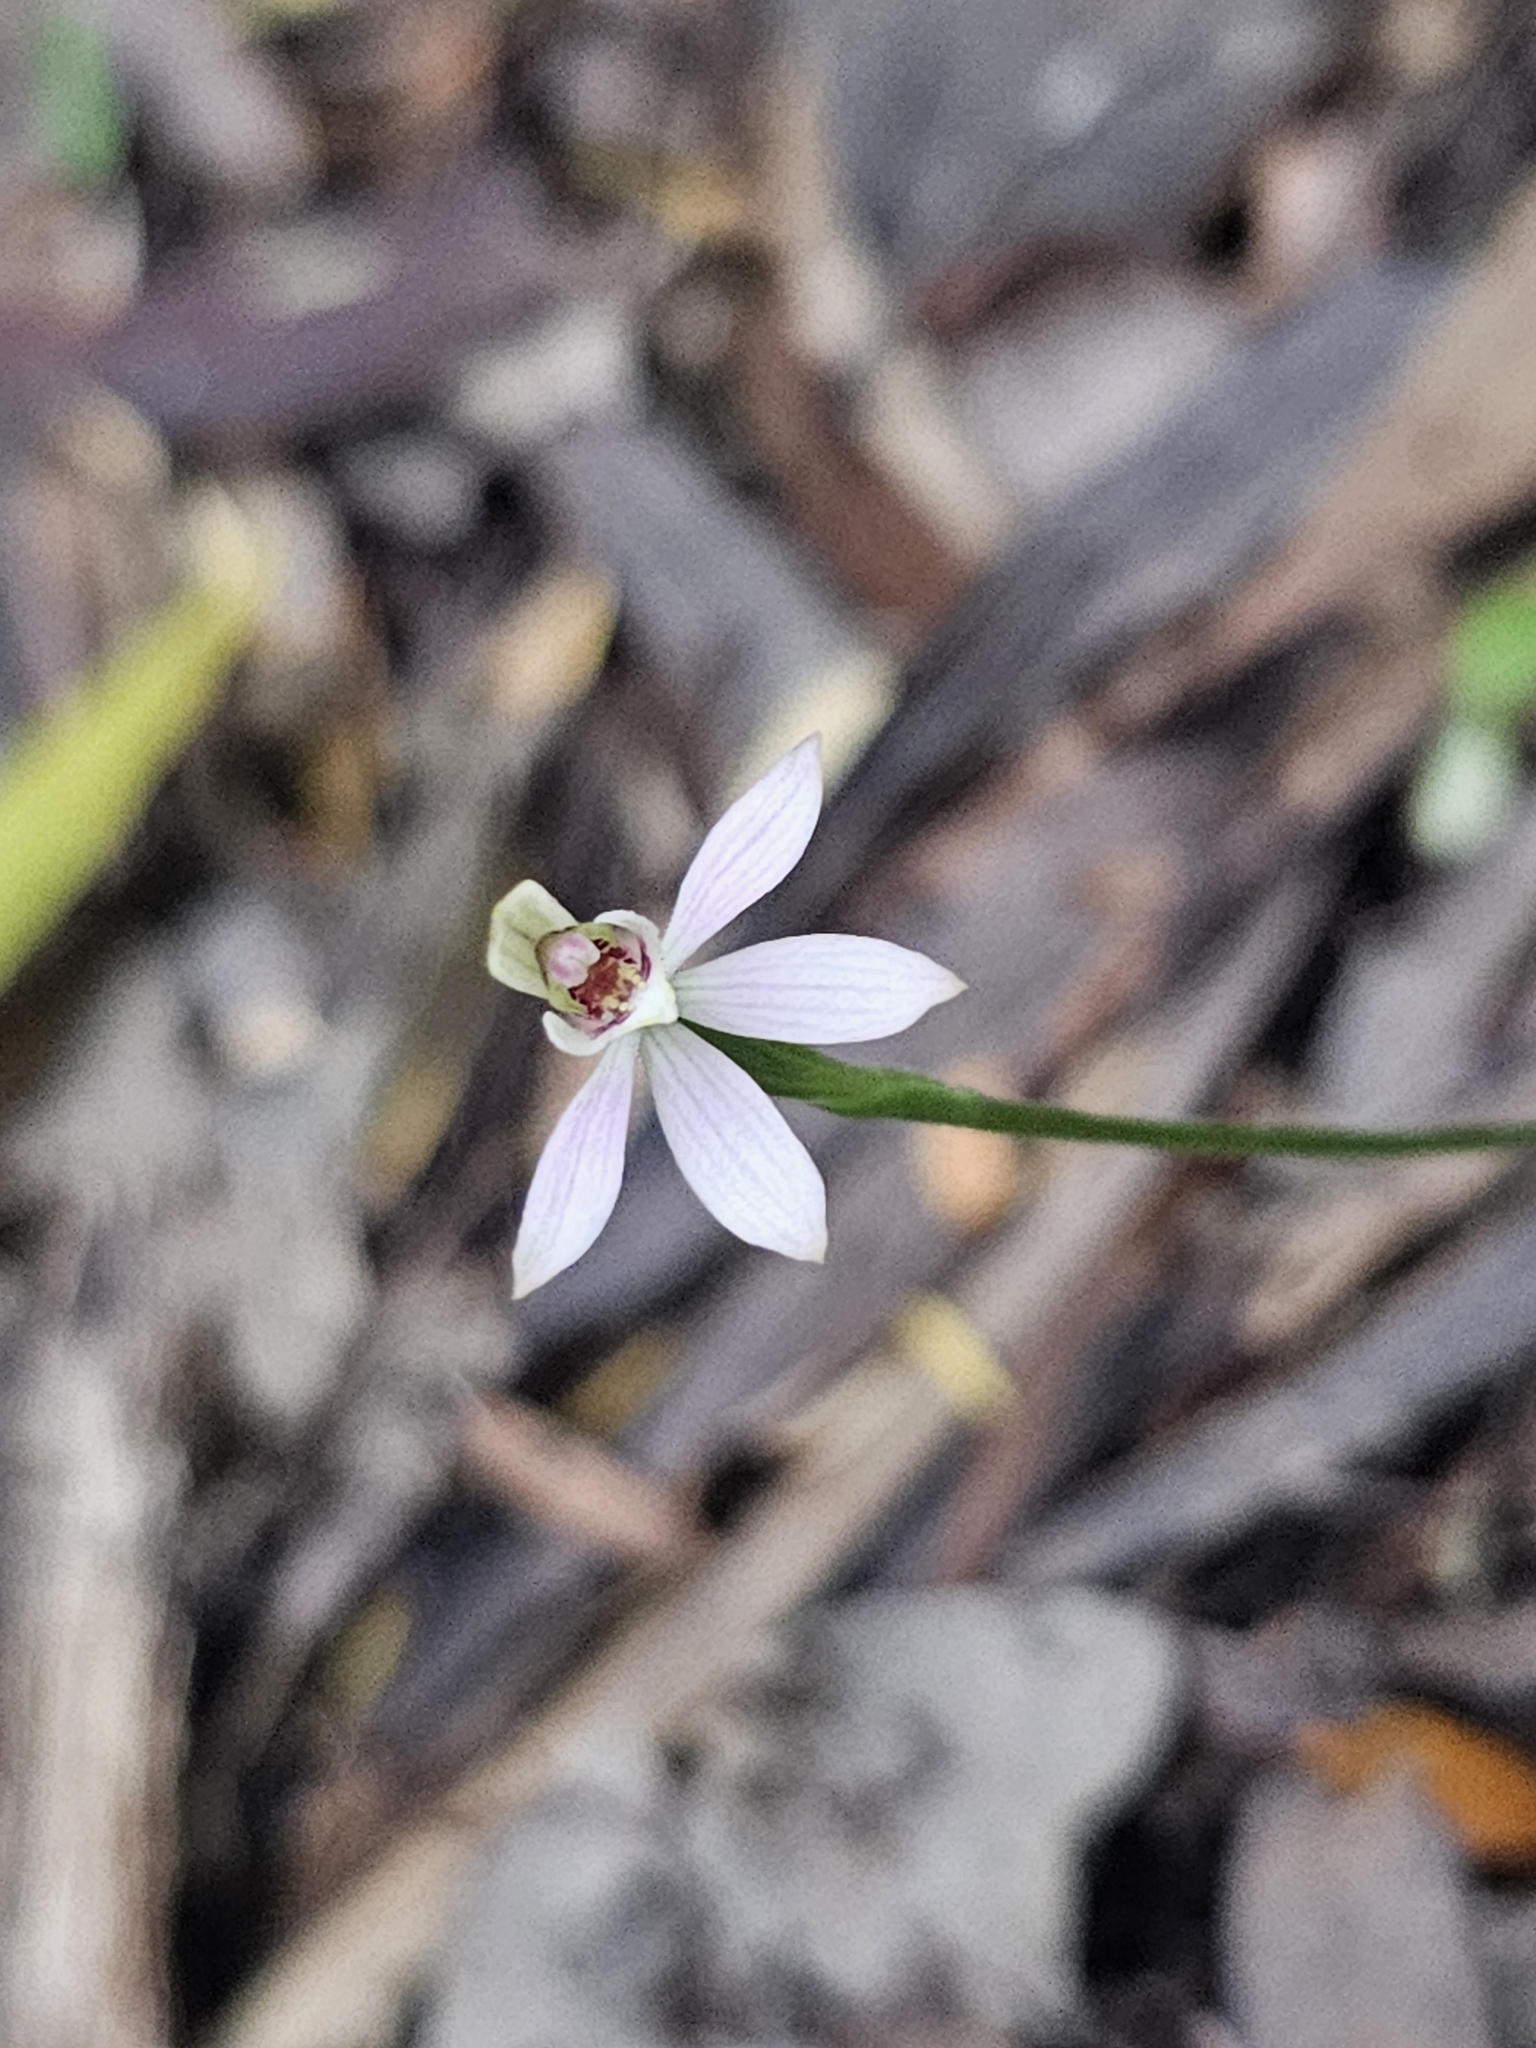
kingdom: Plantae
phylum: Tracheophyta
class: Liliopsida
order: Asparagales
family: Orchidaceae
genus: Caladenia
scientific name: Caladenia variegata
